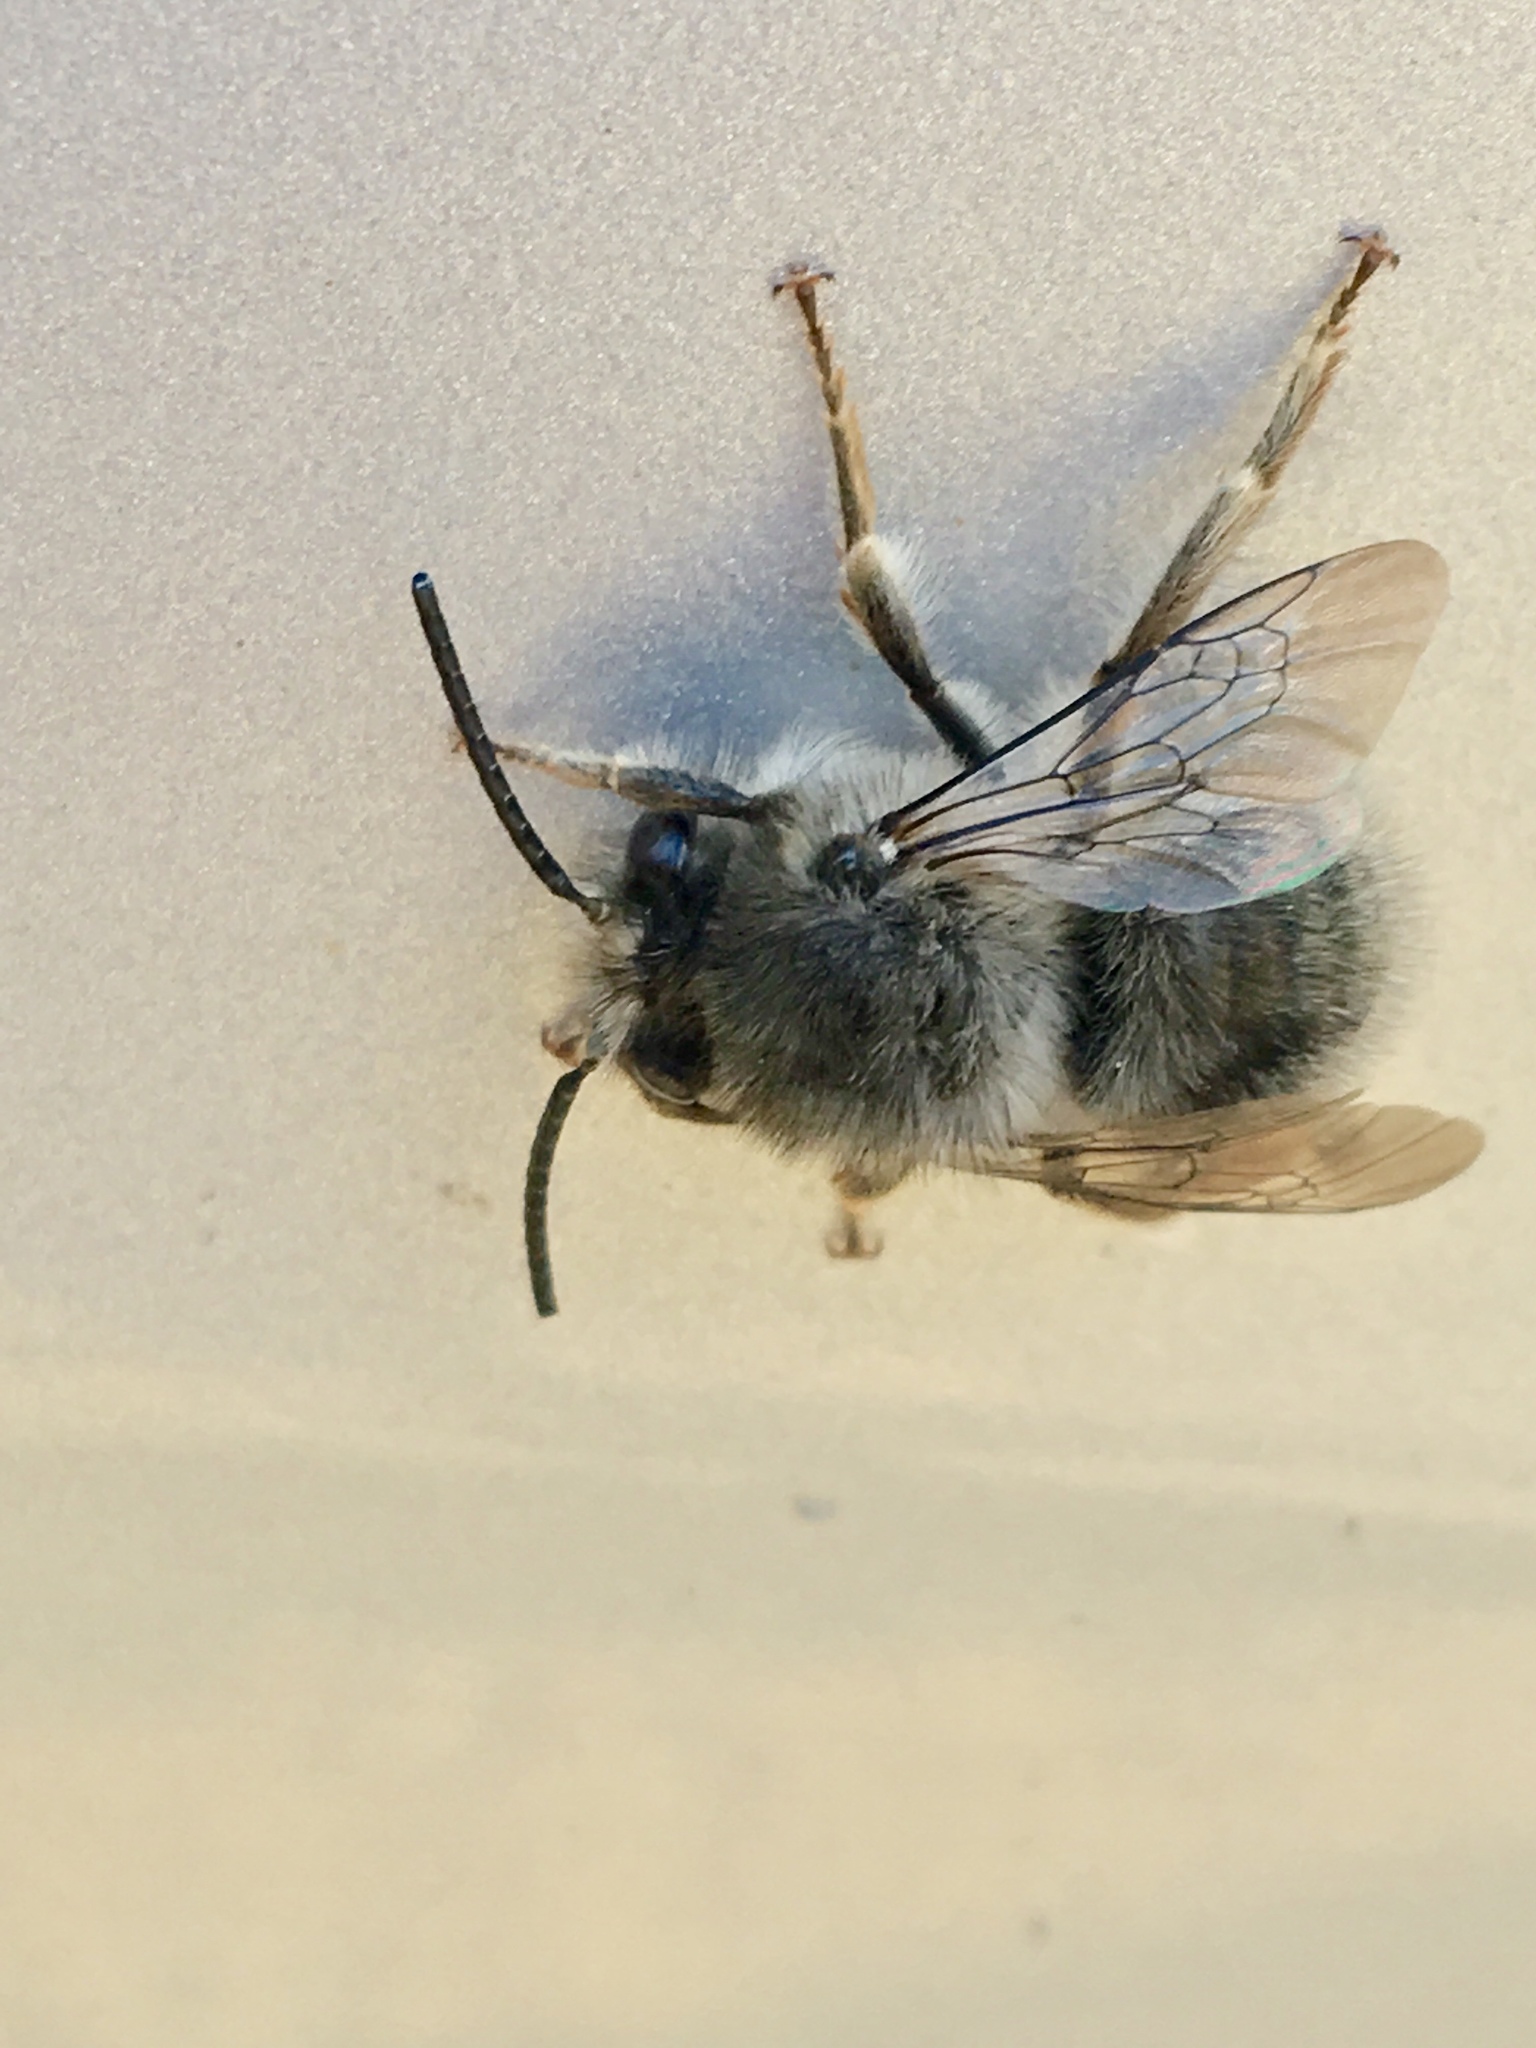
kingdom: Animalia
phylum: Arthropoda
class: Insecta
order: Hymenoptera
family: Apidae
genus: Habropoda
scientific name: Habropoda depressa
